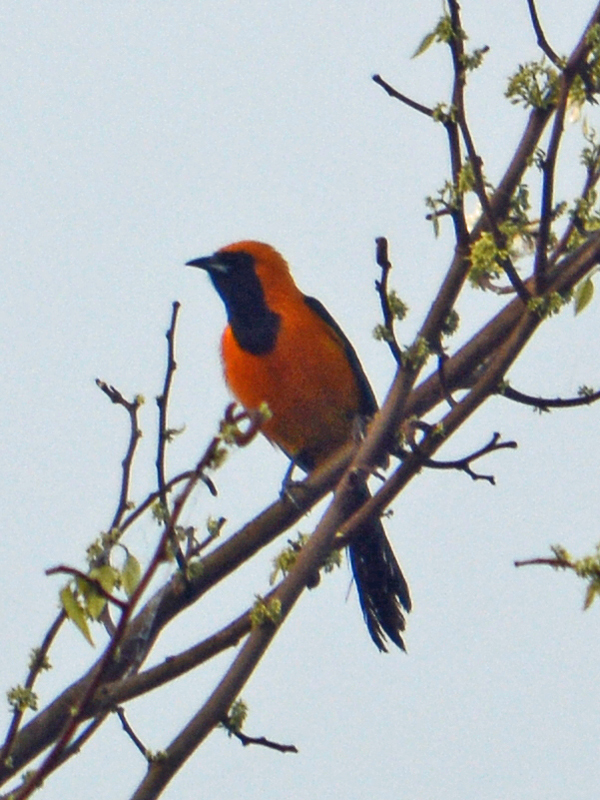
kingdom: Animalia
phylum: Chordata
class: Aves
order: Passeriformes
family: Icteridae
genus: Icterus
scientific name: Icterus cucullatus
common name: Hooded oriole
